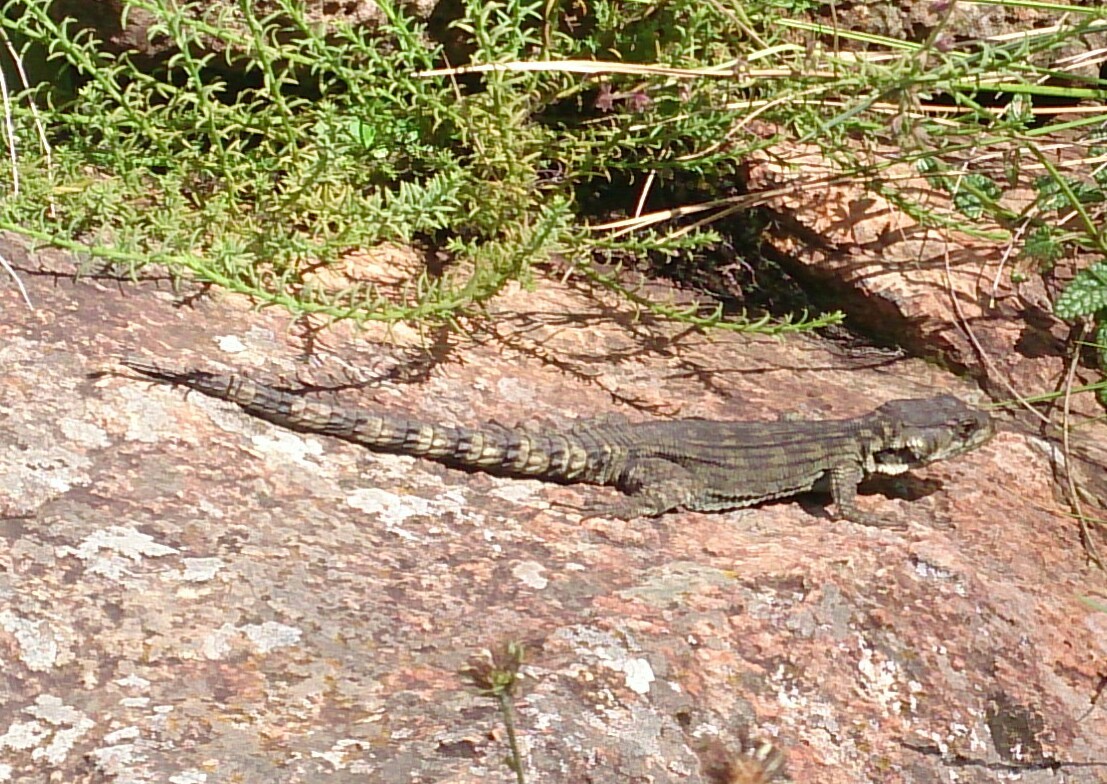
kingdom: Animalia
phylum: Chordata
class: Squamata
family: Cordylidae
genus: Pseudocordylus
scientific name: Pseudocordylus subviridis
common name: Drakensberg crag lizard
